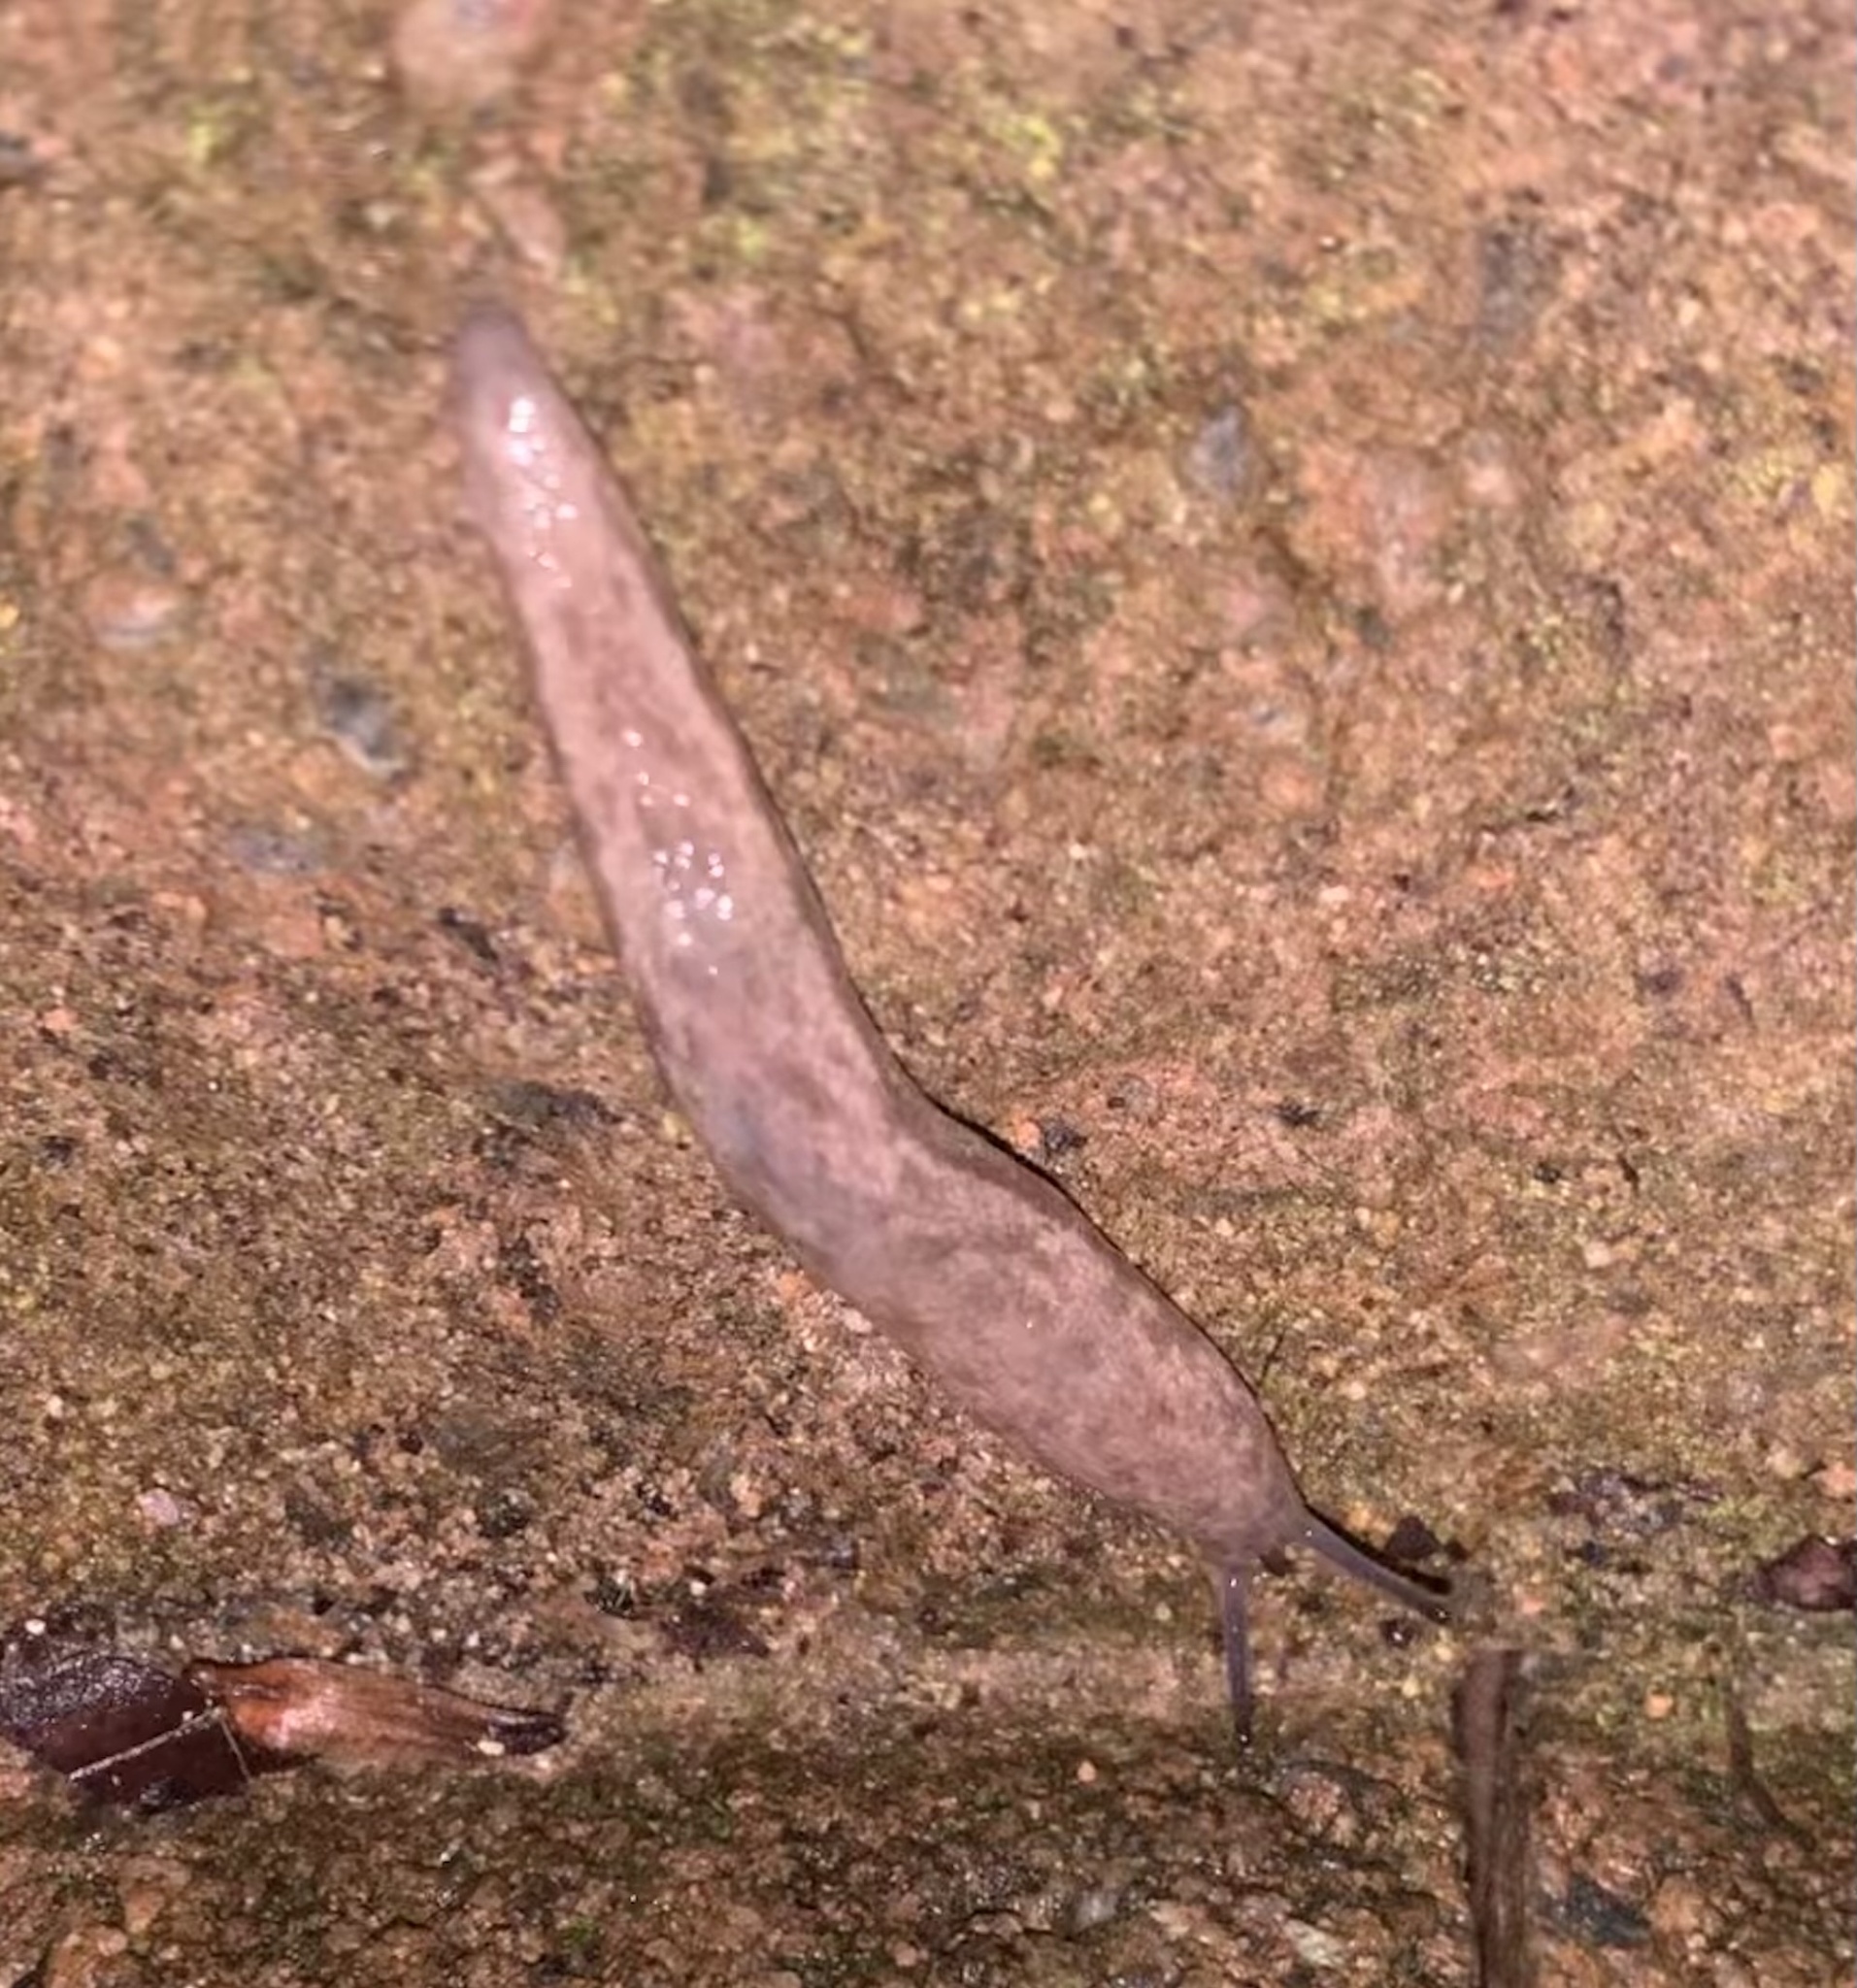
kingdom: Animalia
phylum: Mollusca
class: Gastropoda
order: Stylommatophora
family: Philomycidae
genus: Megapallifera
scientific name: Megapallifera mutabilis
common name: Changeable mantleslug
